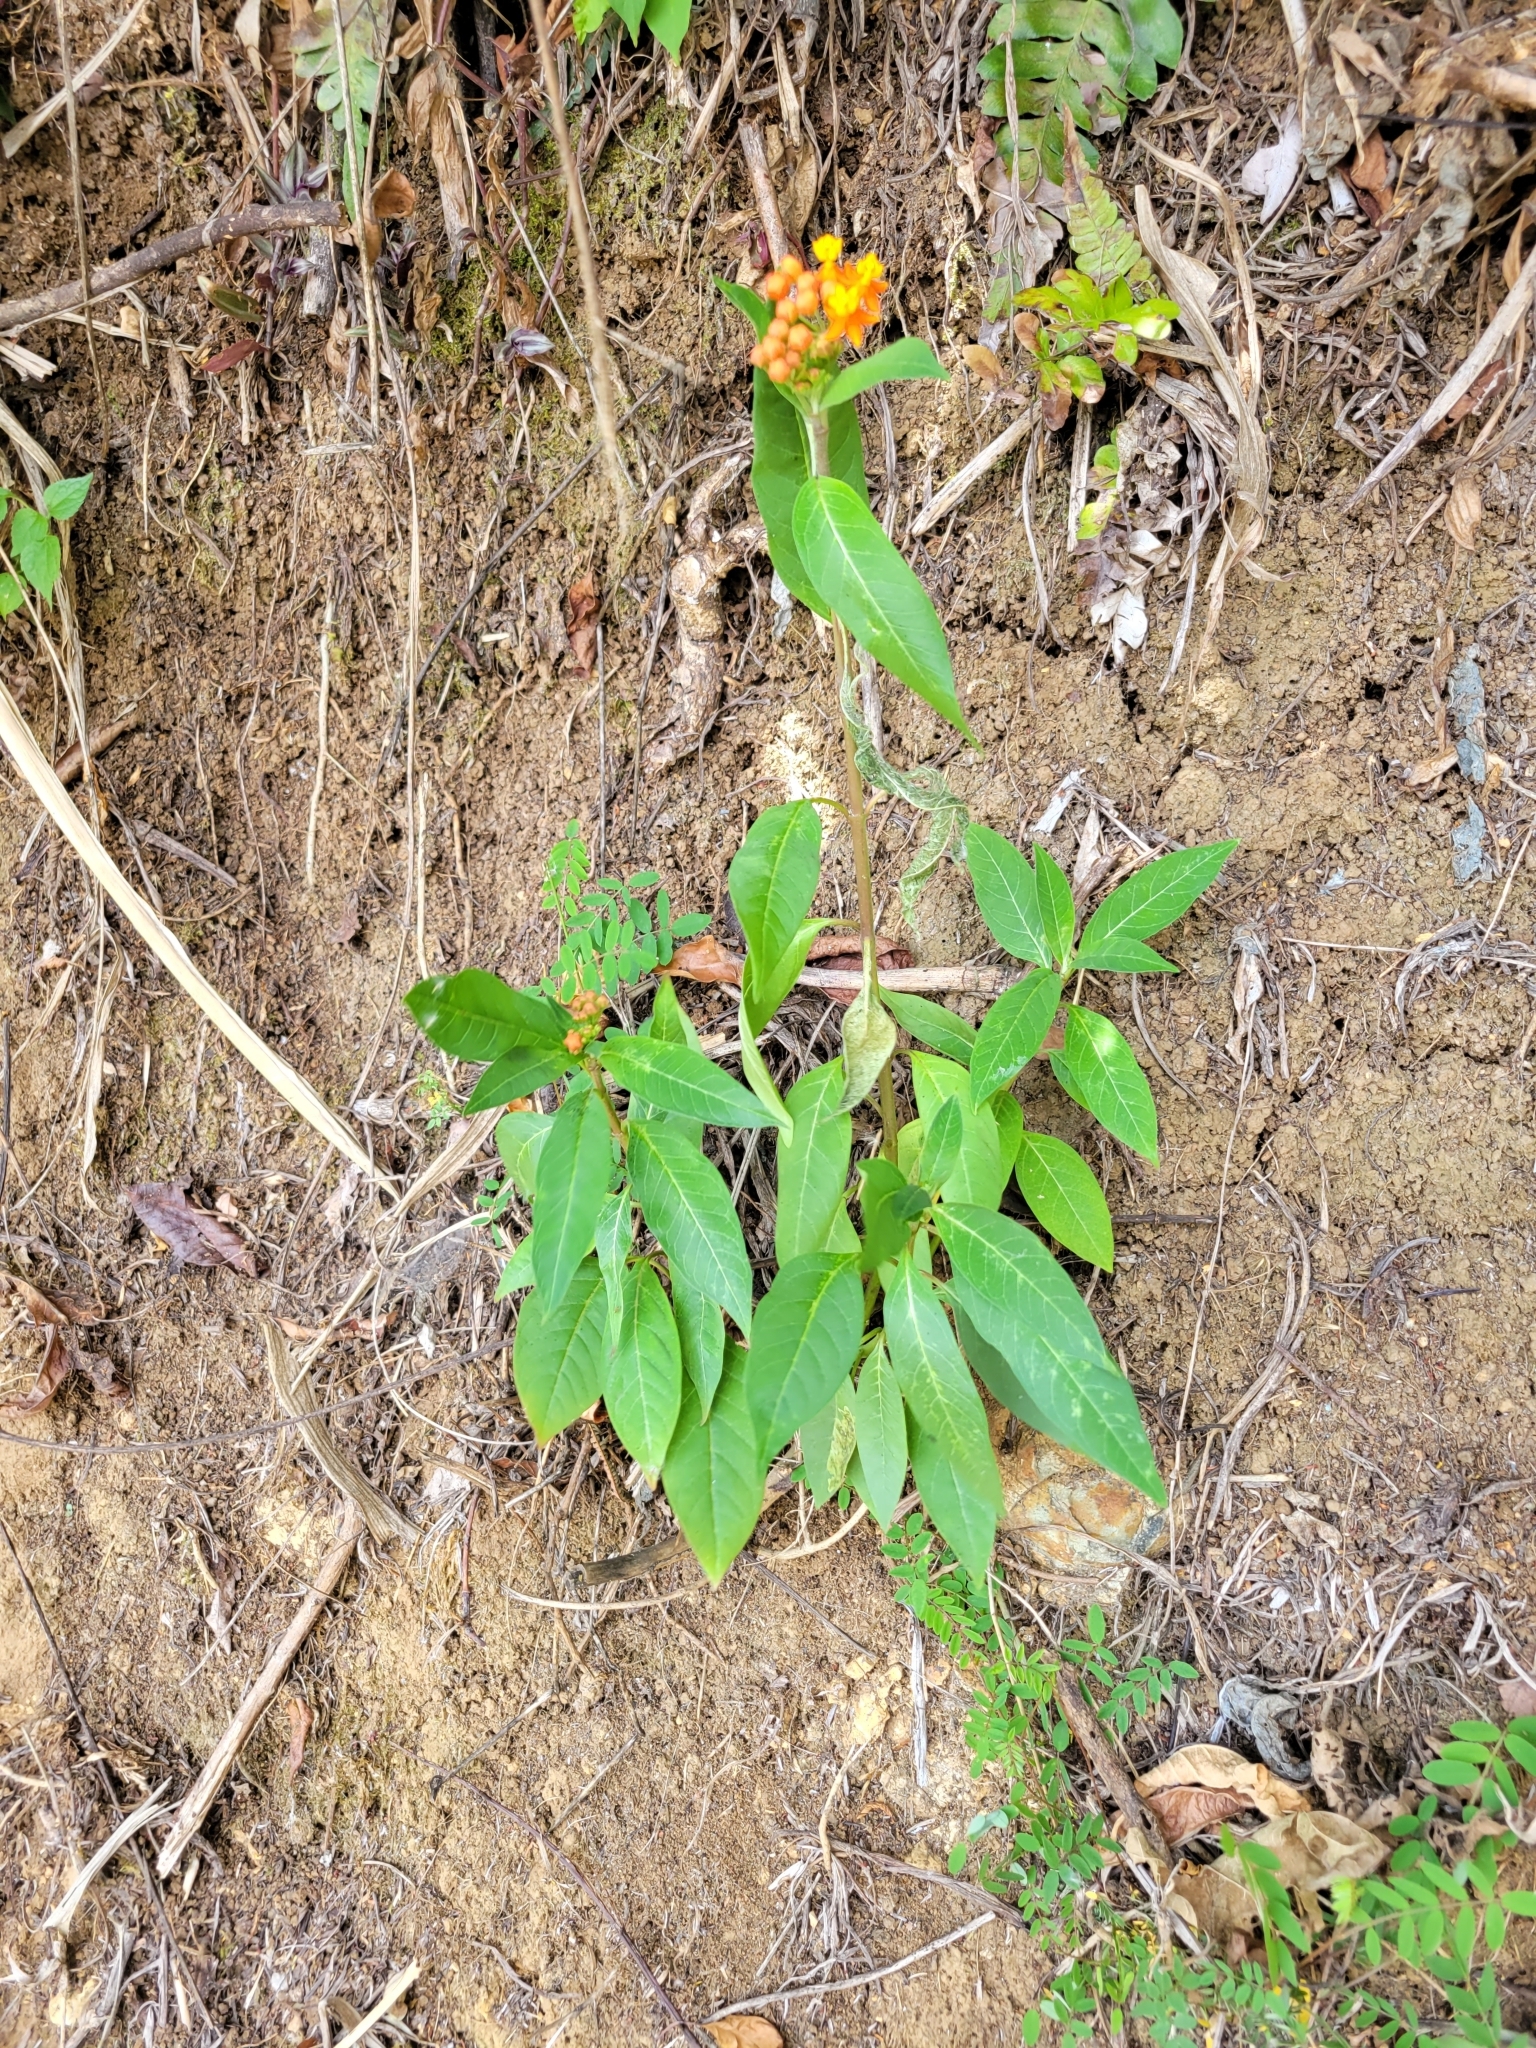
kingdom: Plantae
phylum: Tracheophyta
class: Magnoliopsida
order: Gentianales
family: Apocynaceae
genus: Asclepias
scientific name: Asclepias curassavica
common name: Bloodflower
